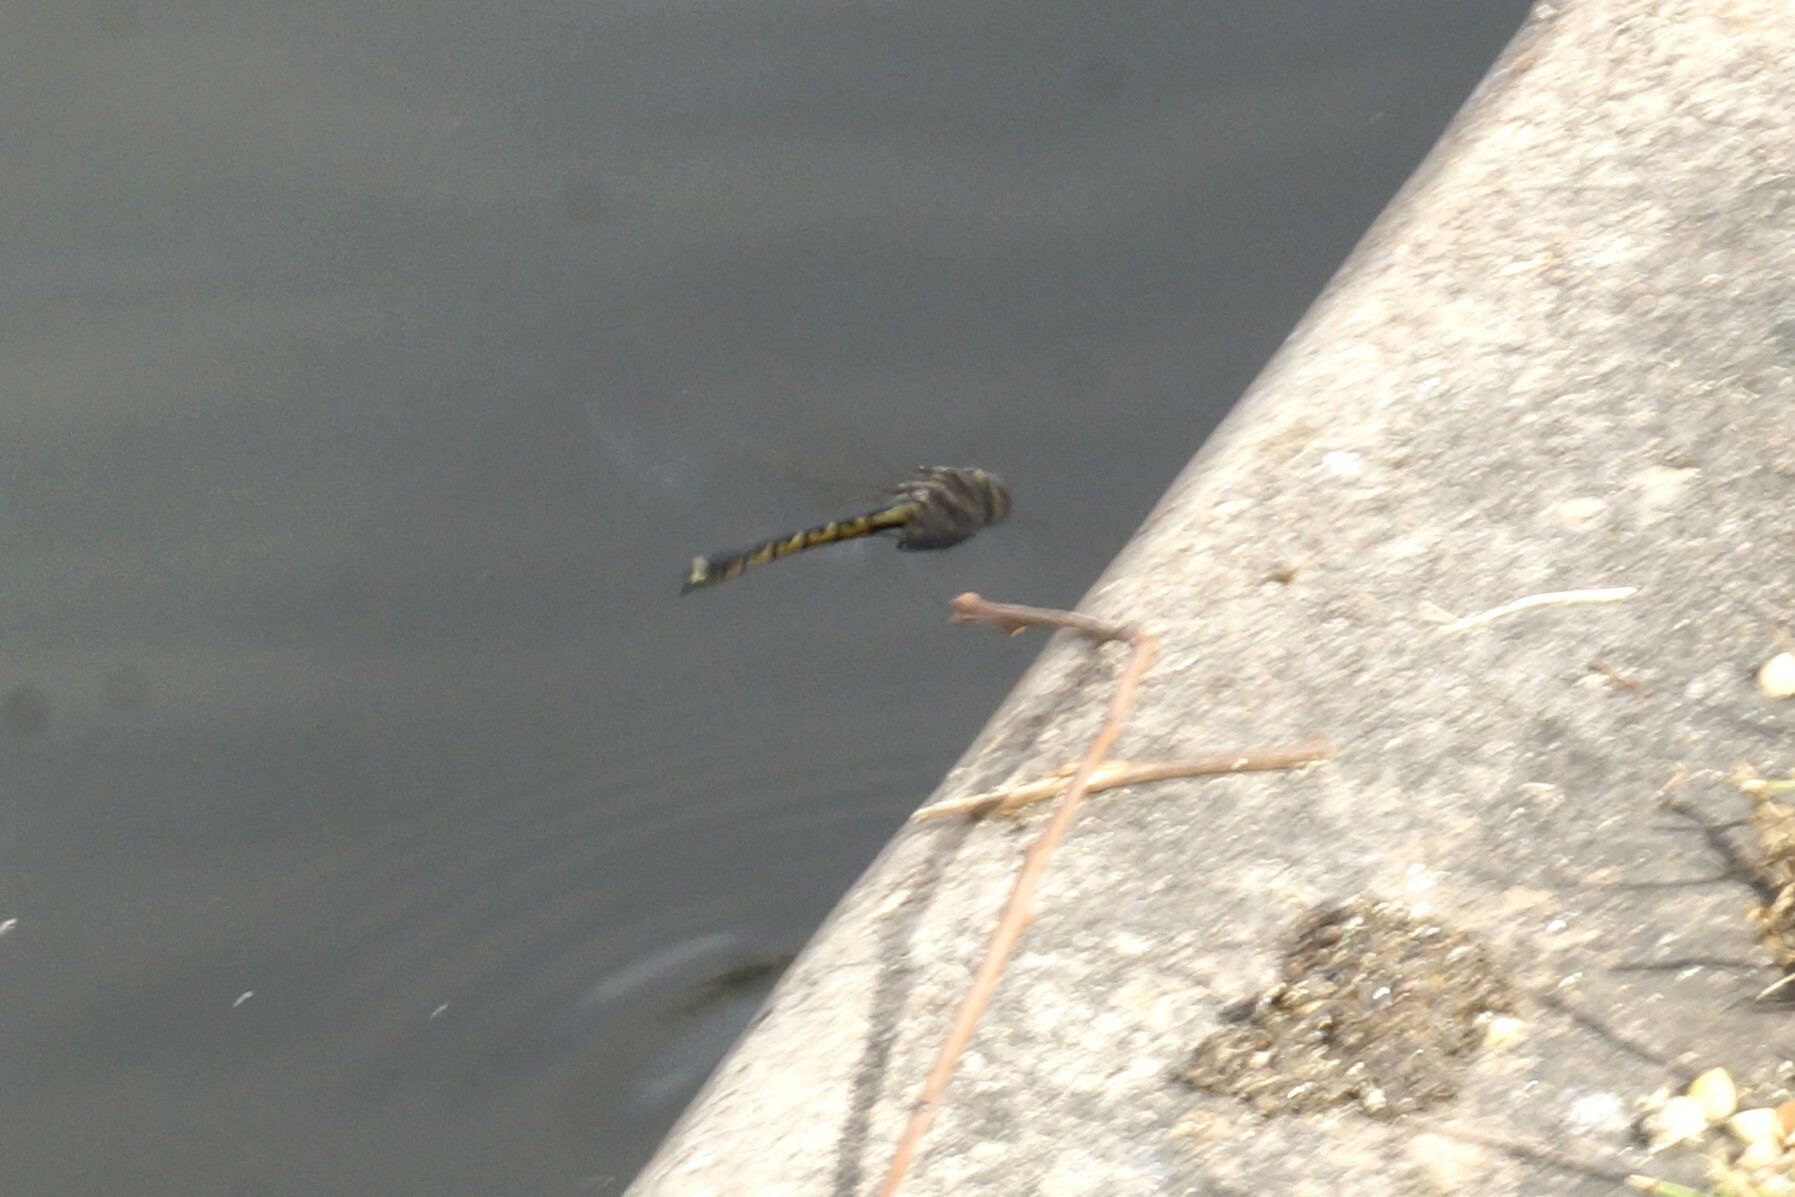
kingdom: Animalia
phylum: Arthropoda
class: Insecta
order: Odonata
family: Corduliidae
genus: Hemicordulia
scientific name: Hemicordulia tau
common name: Tau emerald
